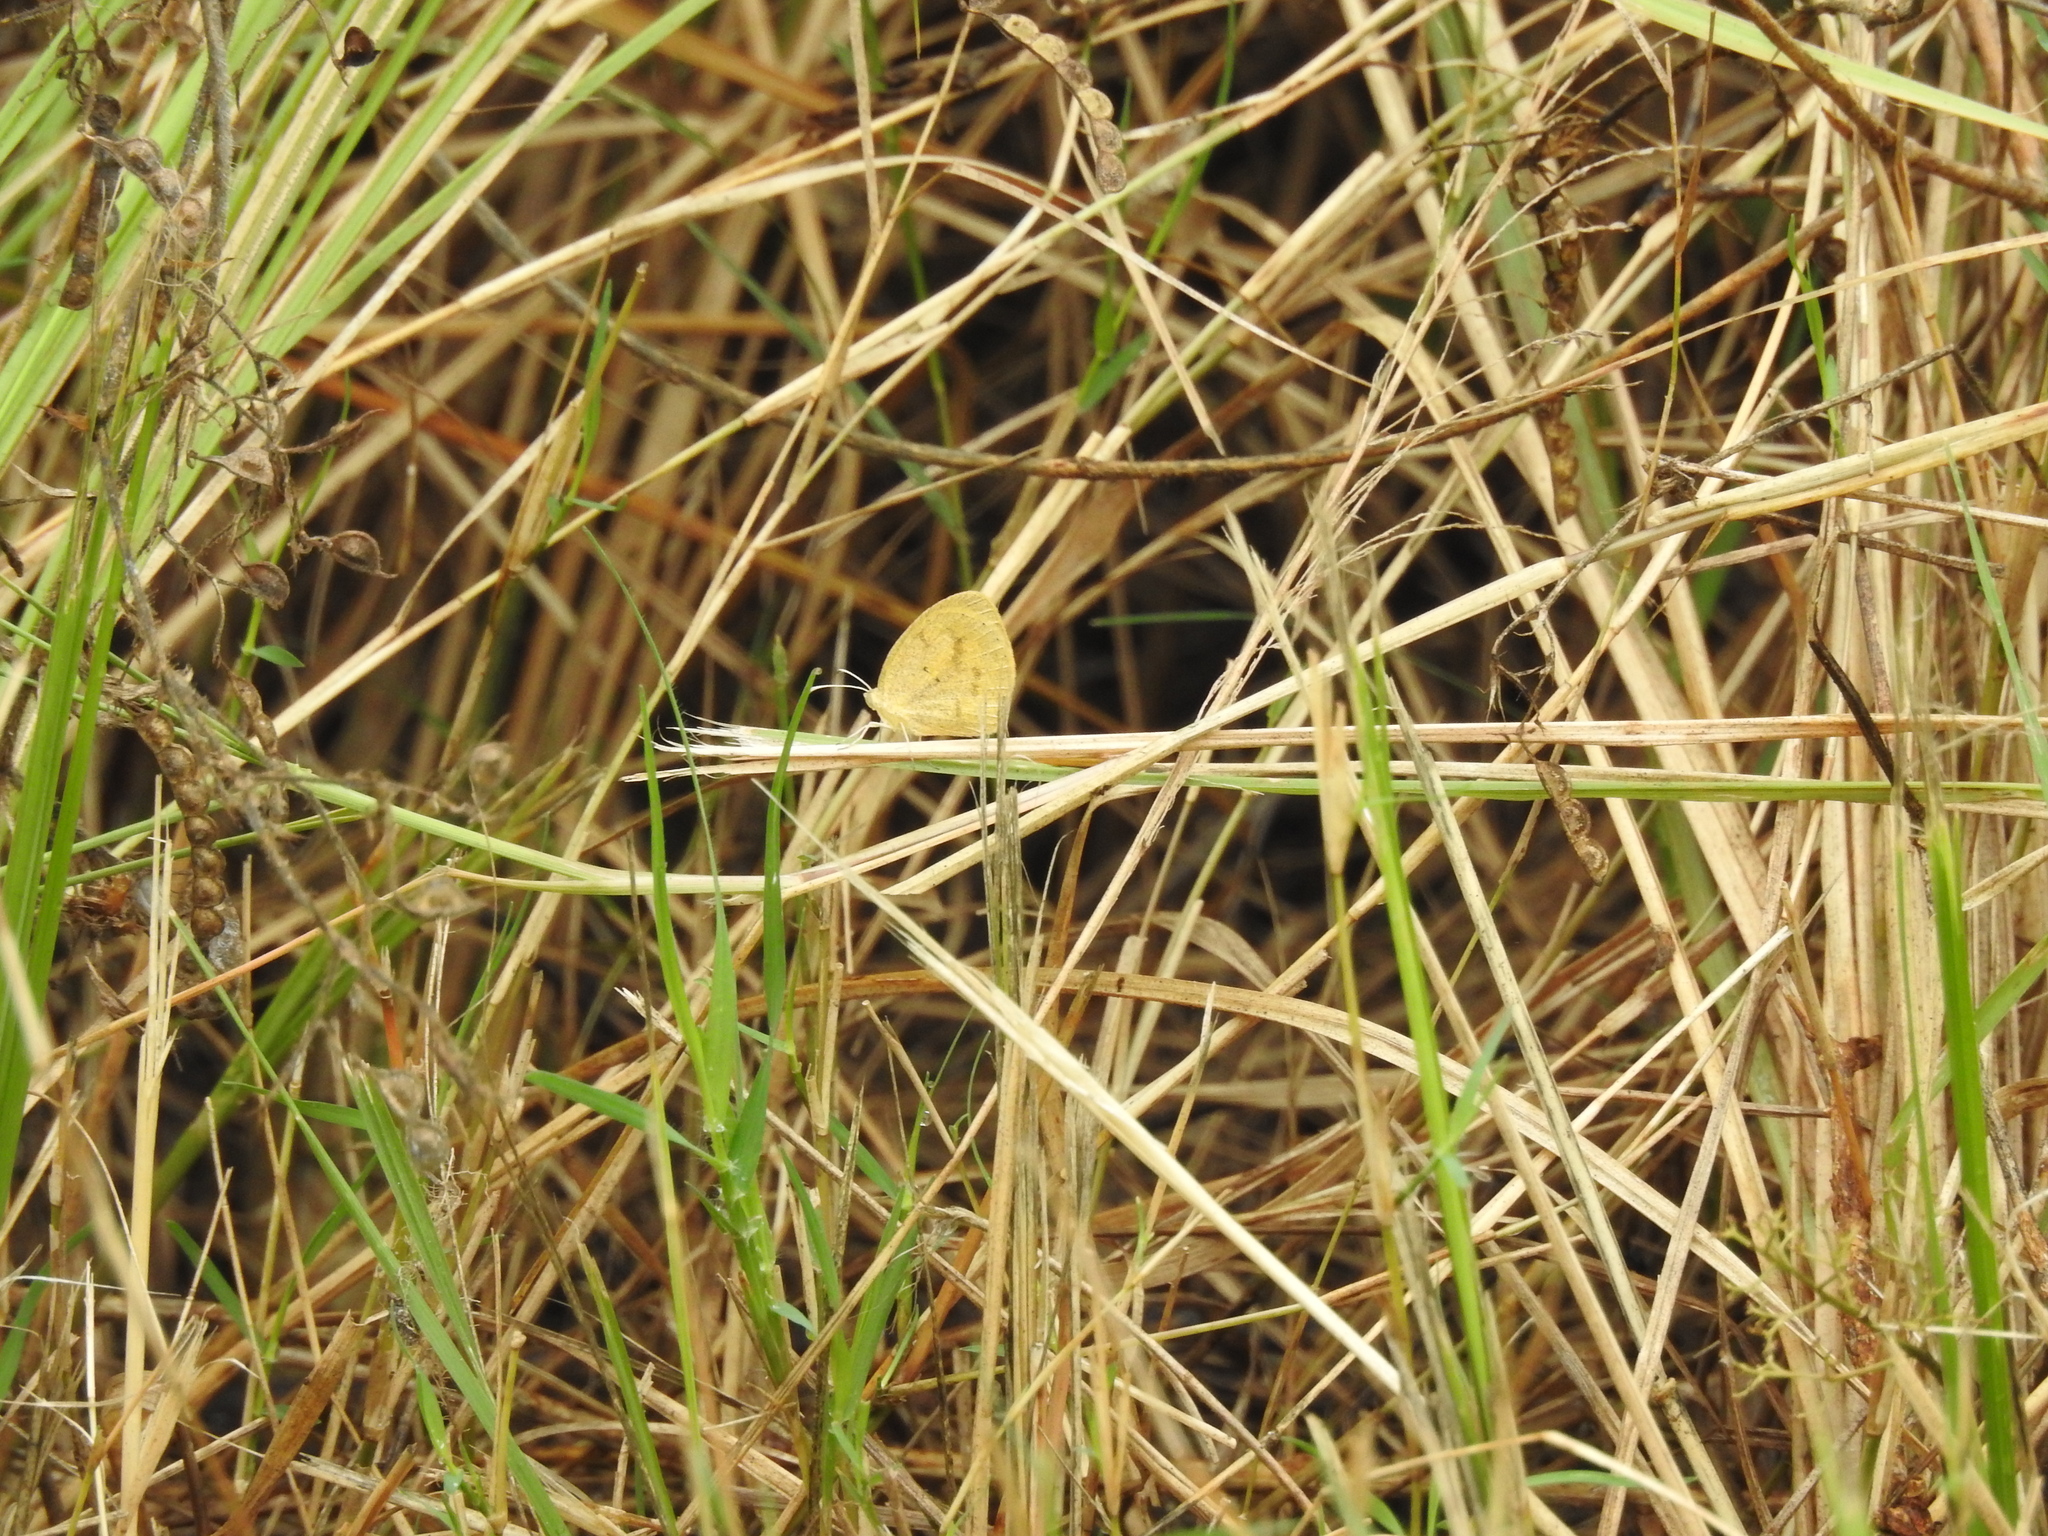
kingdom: Animalia
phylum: Arthropoda
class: Insecta
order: Lepidoptera
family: Pieridae
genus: Eurema
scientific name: Eurema daira
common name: Barred sulphur
